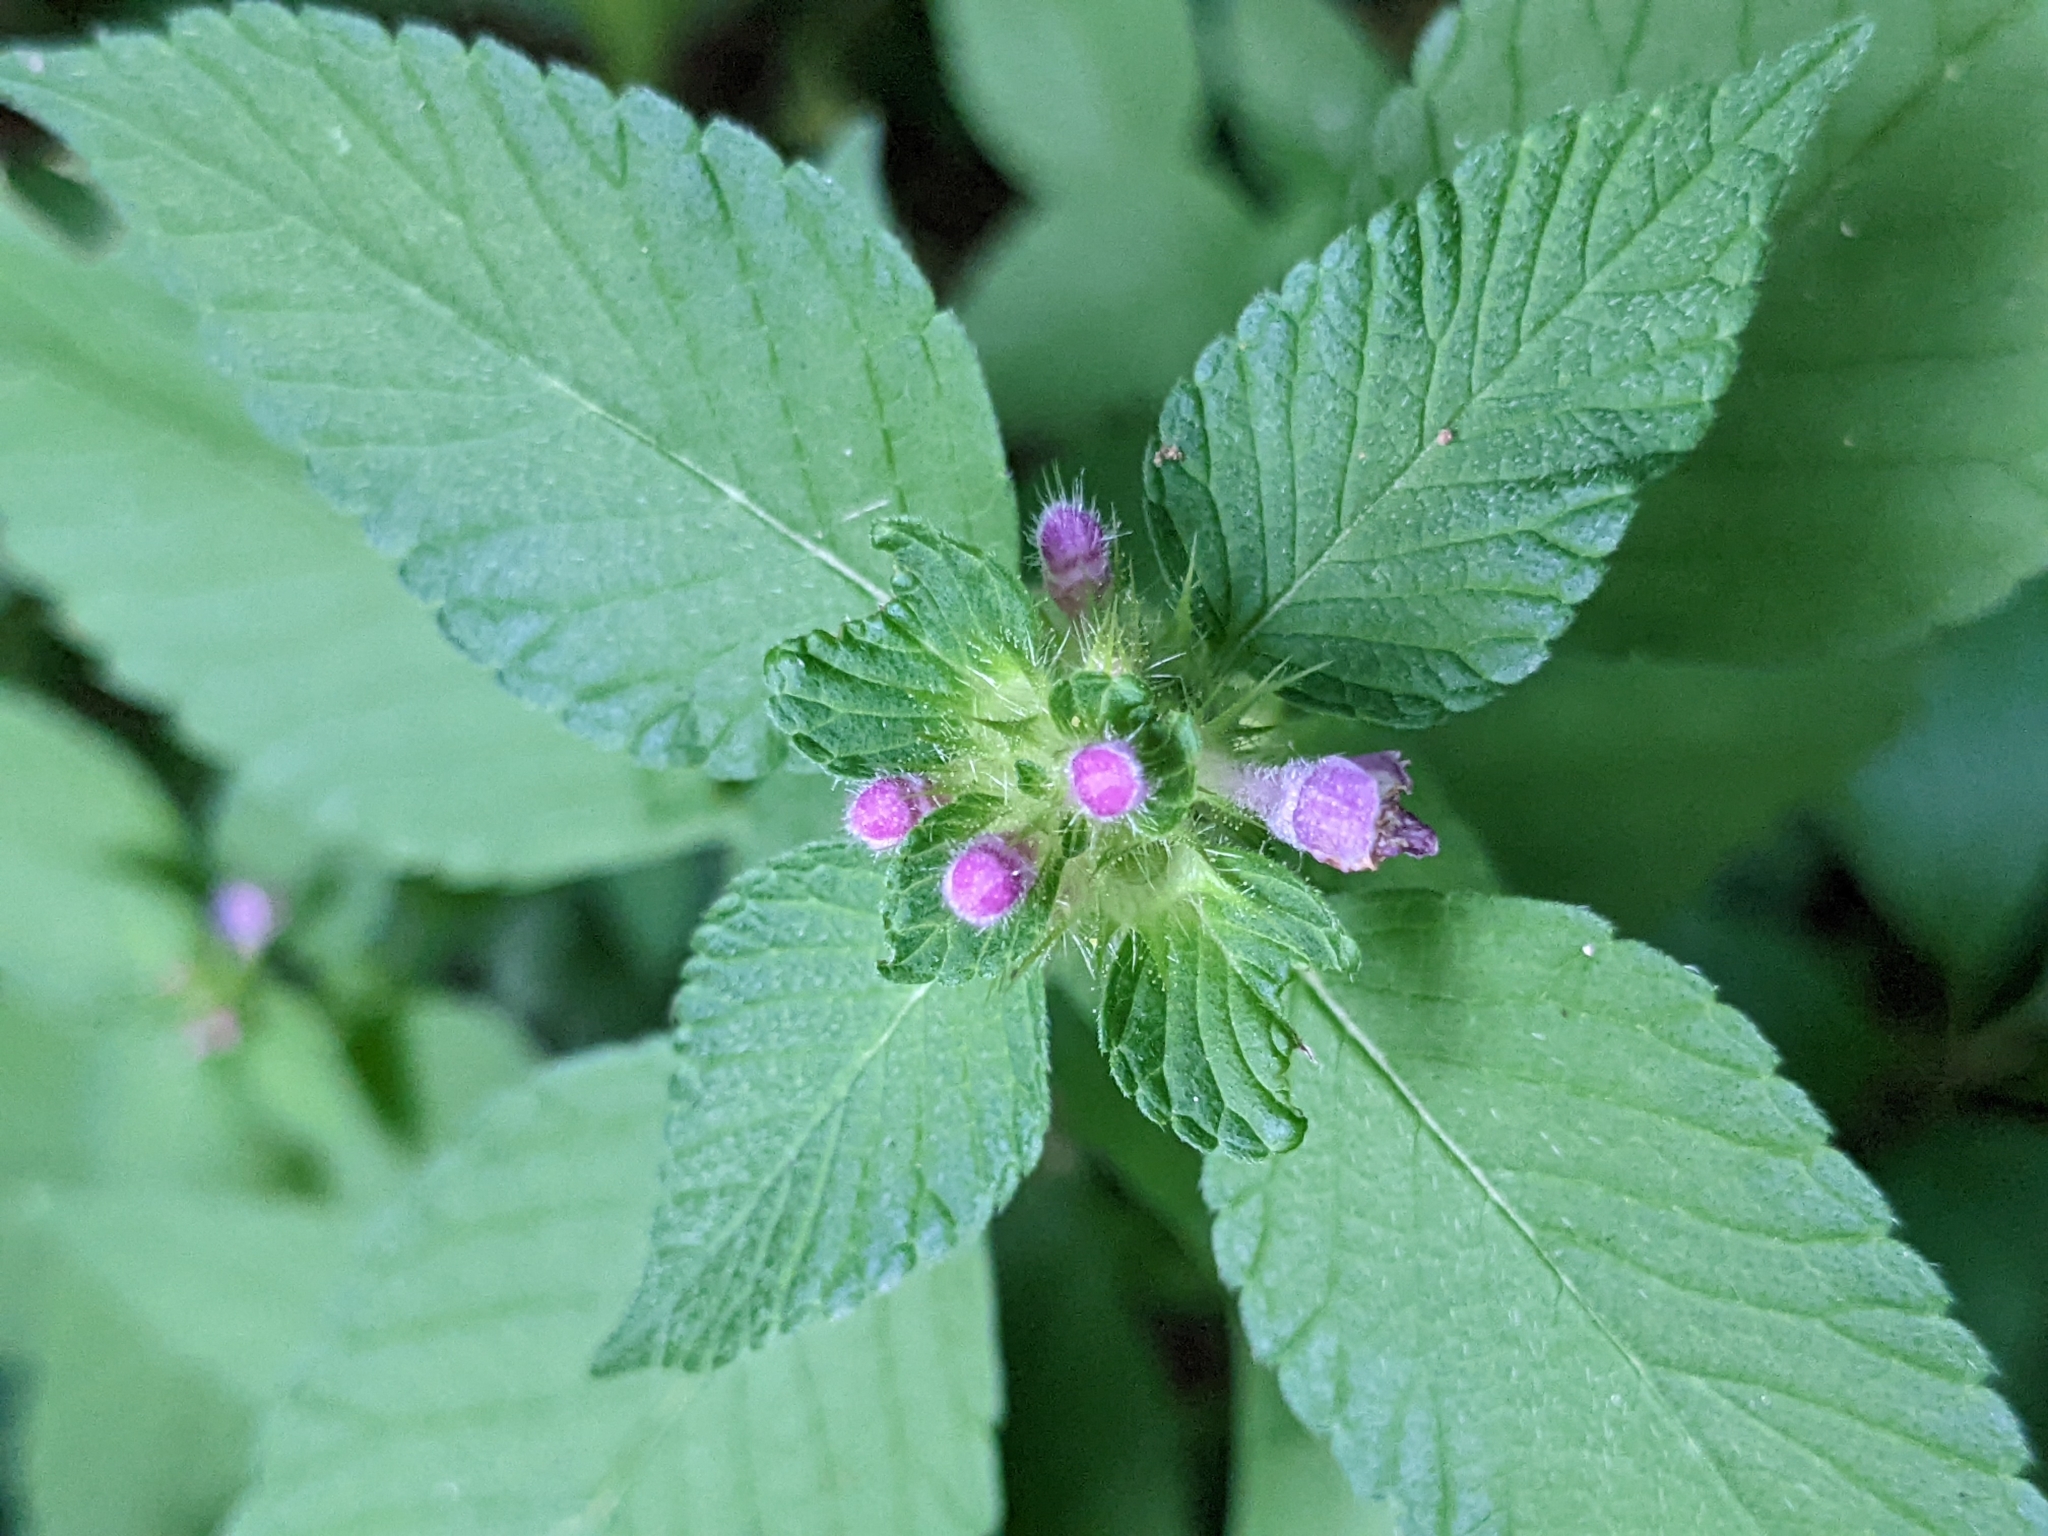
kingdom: Plantae
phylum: Tracheophyta
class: Magnoliopsida
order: Lamiales
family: Lamiaceae
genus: Galeopsis
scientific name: Galeopsis bifida
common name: Bifid hemp-nettle
